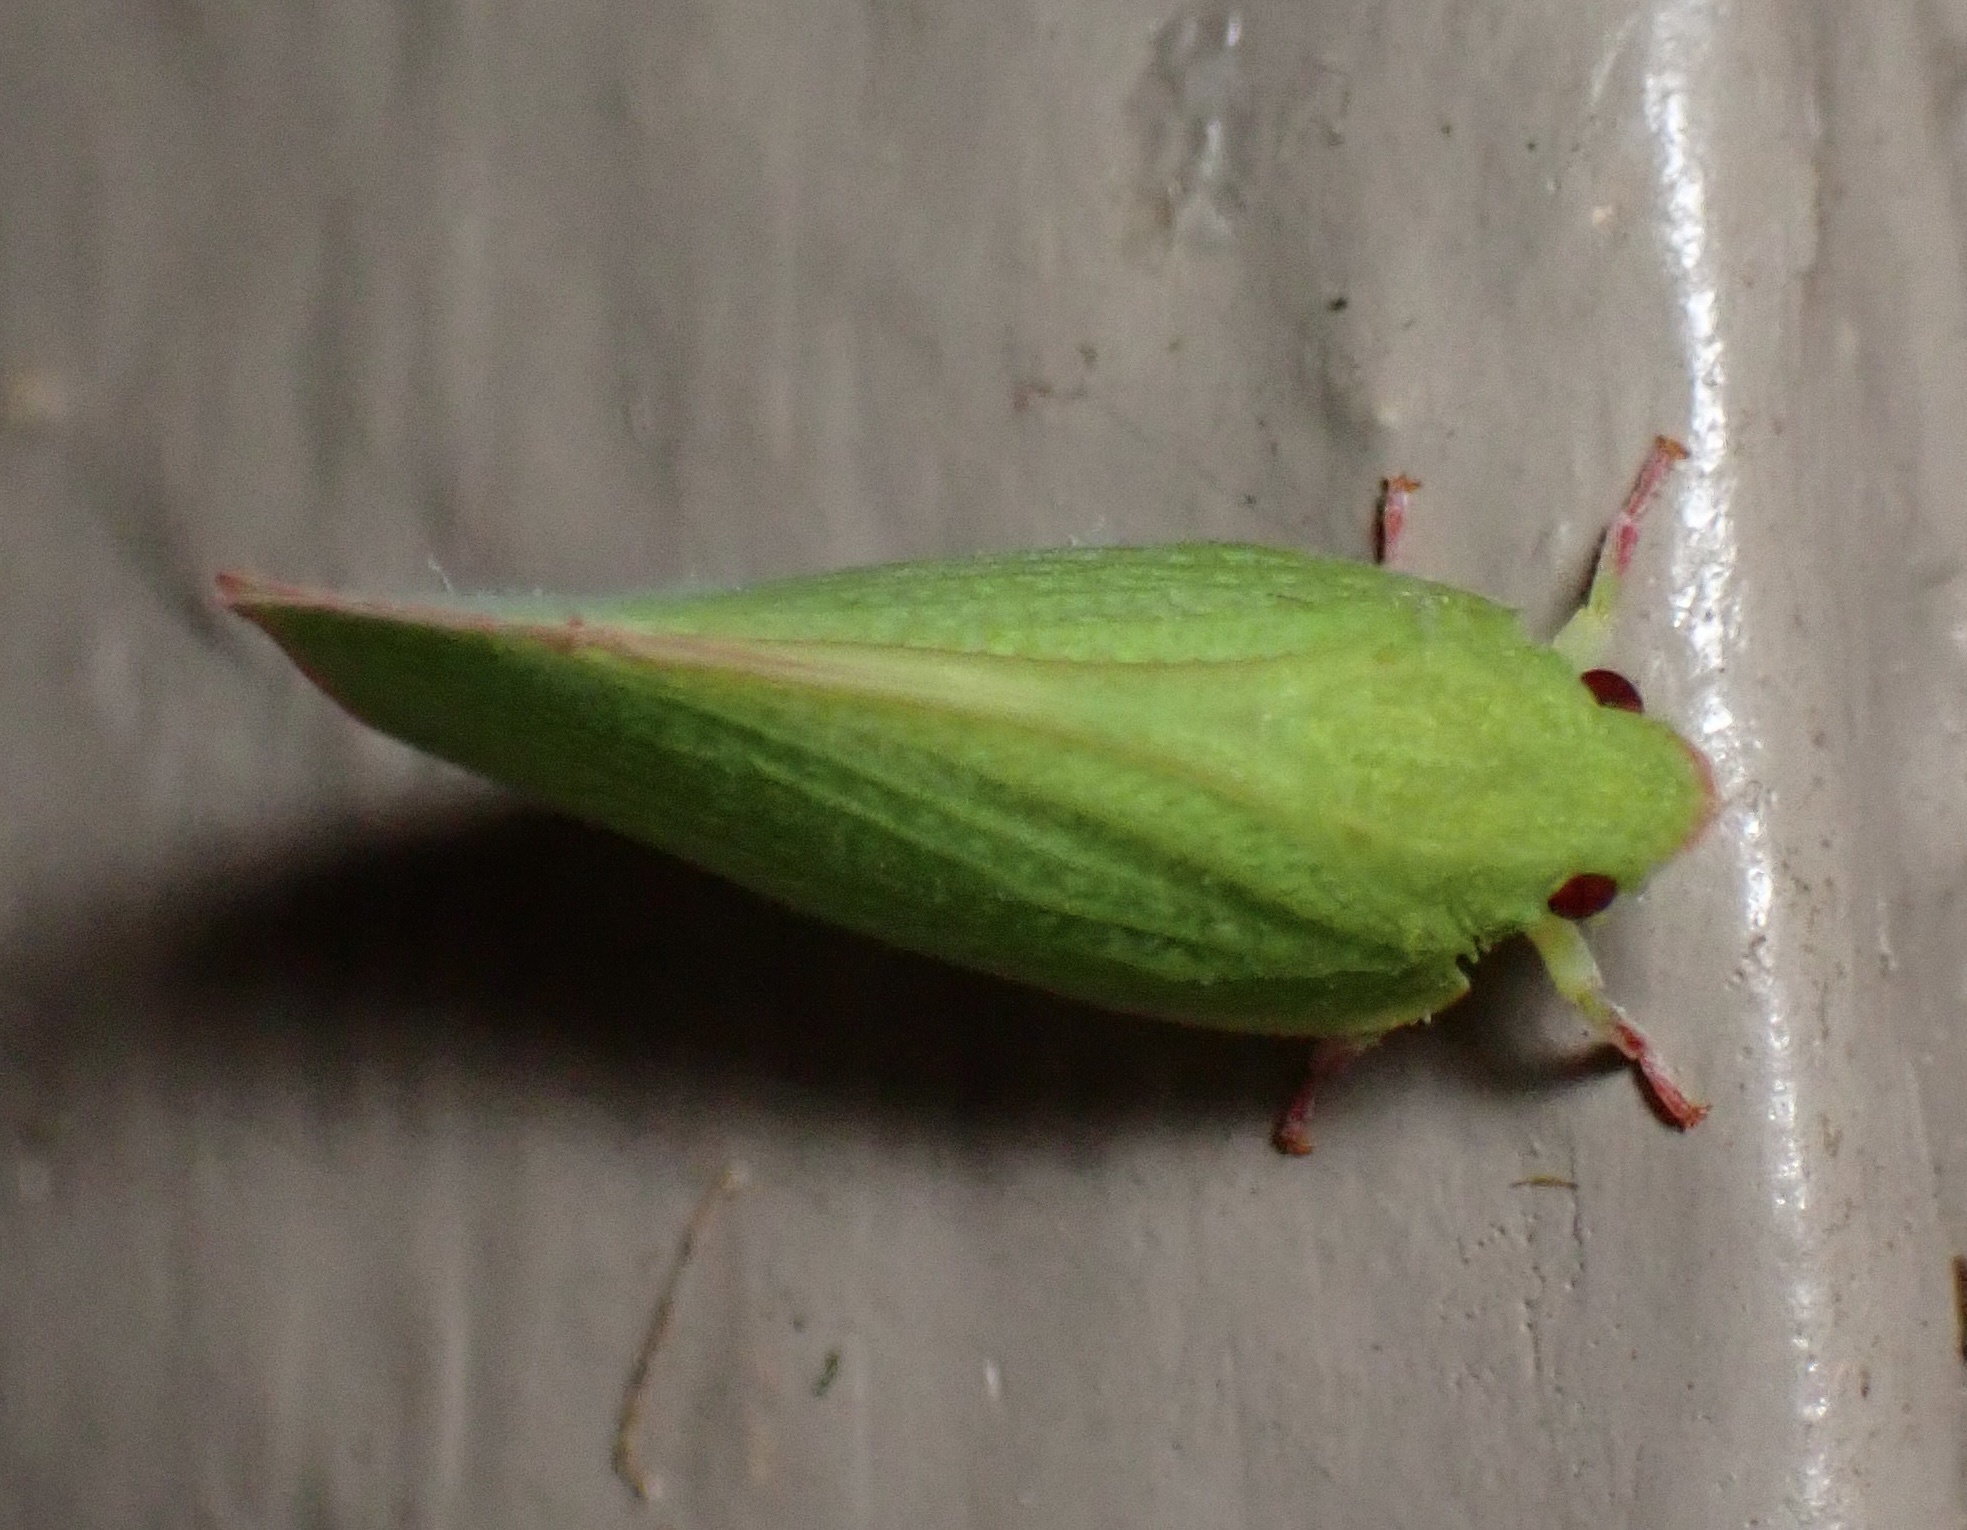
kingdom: Animalia
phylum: Arthropoda
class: Insecta
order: Hemiptera
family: Flatidae
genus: Siphanta
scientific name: Siphanta acuta
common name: Torpedo bug
